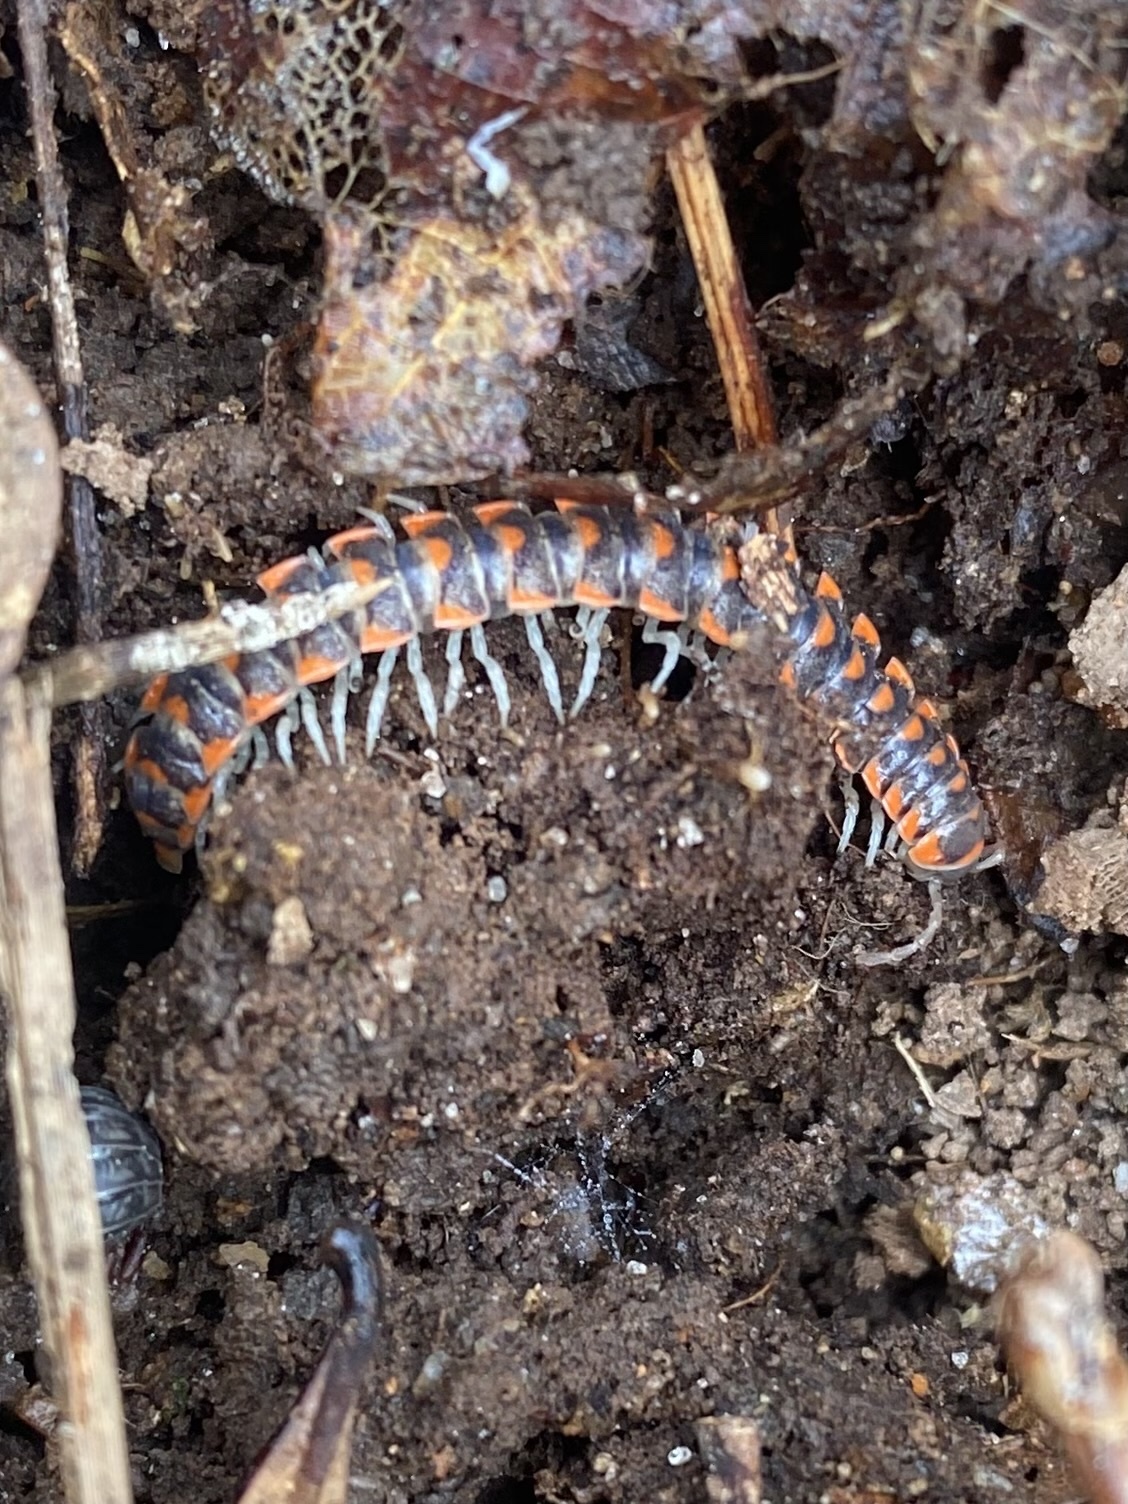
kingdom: Animalia
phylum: Arthropoda
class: Diplopoda
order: Polydesmida
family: Xystodesmidae
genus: Euryurus
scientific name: Euryurus maculatus
